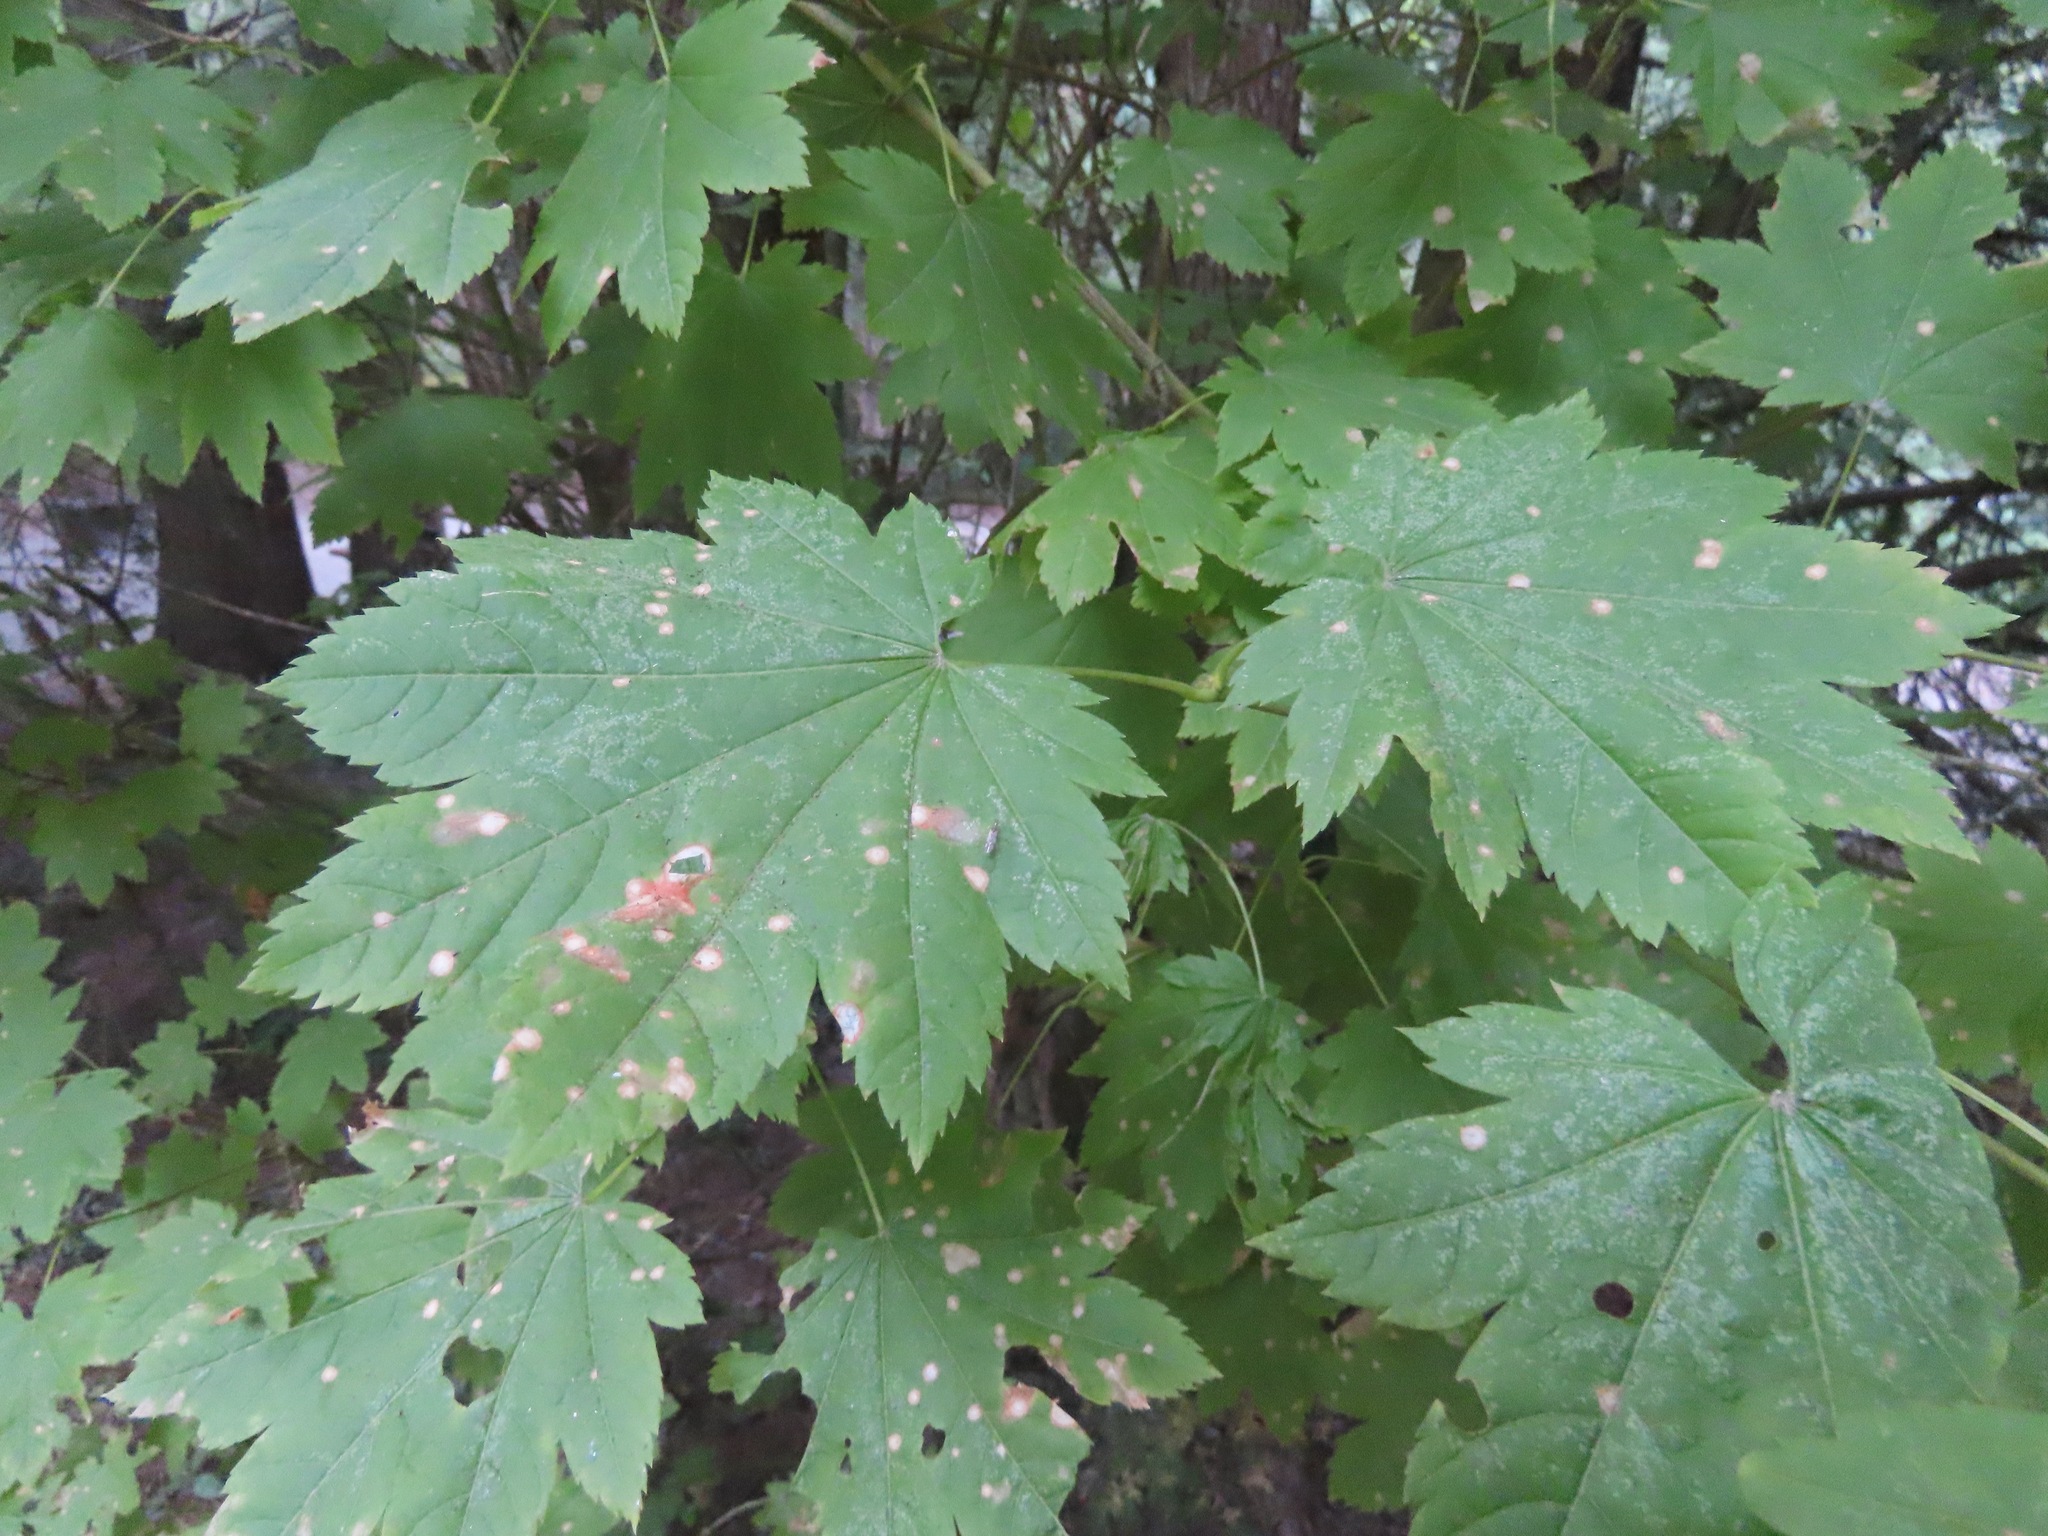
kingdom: Plantae
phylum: Tracheophyta
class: Magnoliopsida
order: Sapindales
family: Sapindaceae
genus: Acer
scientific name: Acer circinatum
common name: Vine maple
